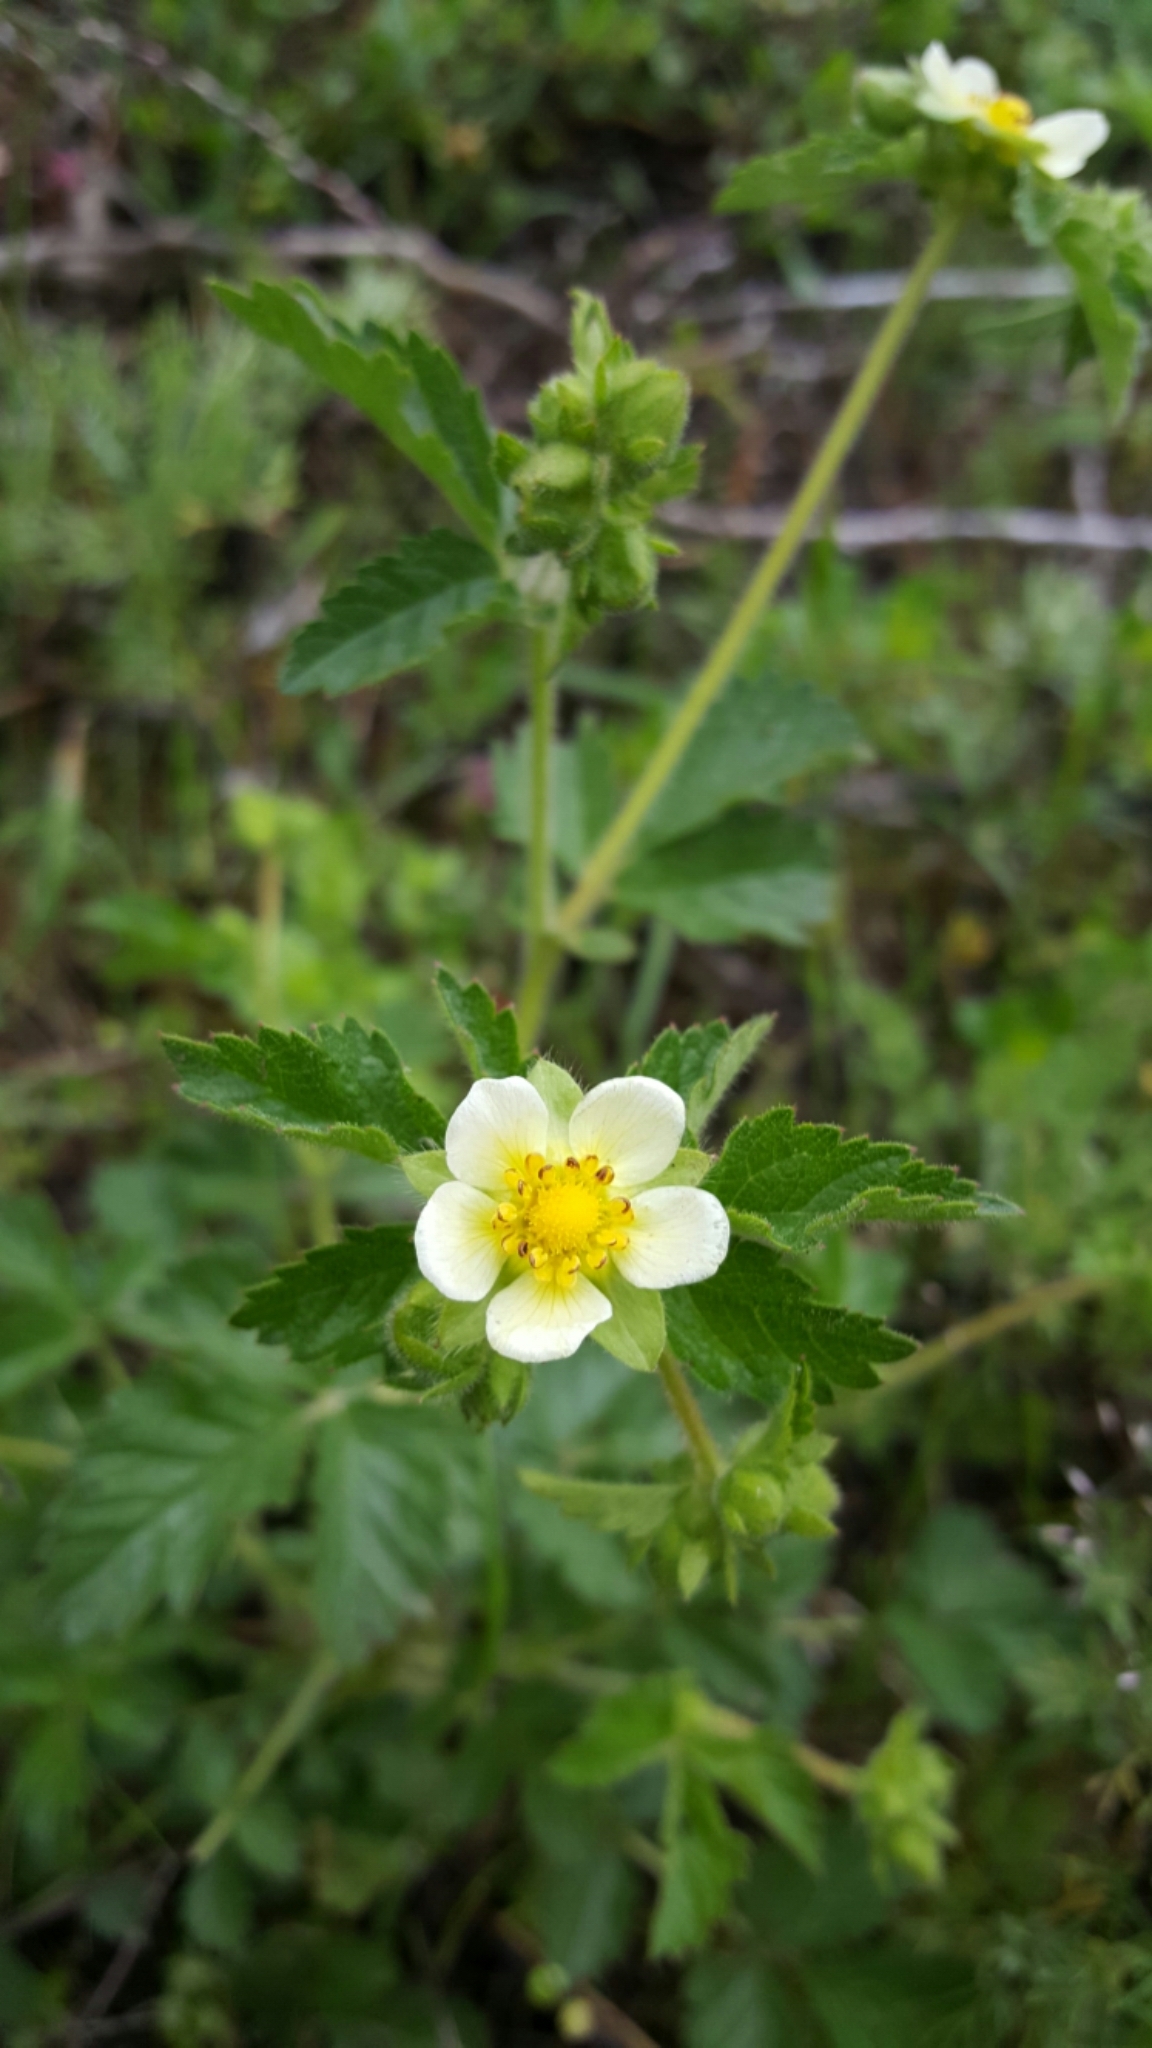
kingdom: Plantae
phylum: Tracheophyta
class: Magnoliopsida
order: Rosales
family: Rosaceae
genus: Drymocallis
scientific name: Drymocallis glandulosa
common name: Sticky cinquefoil
